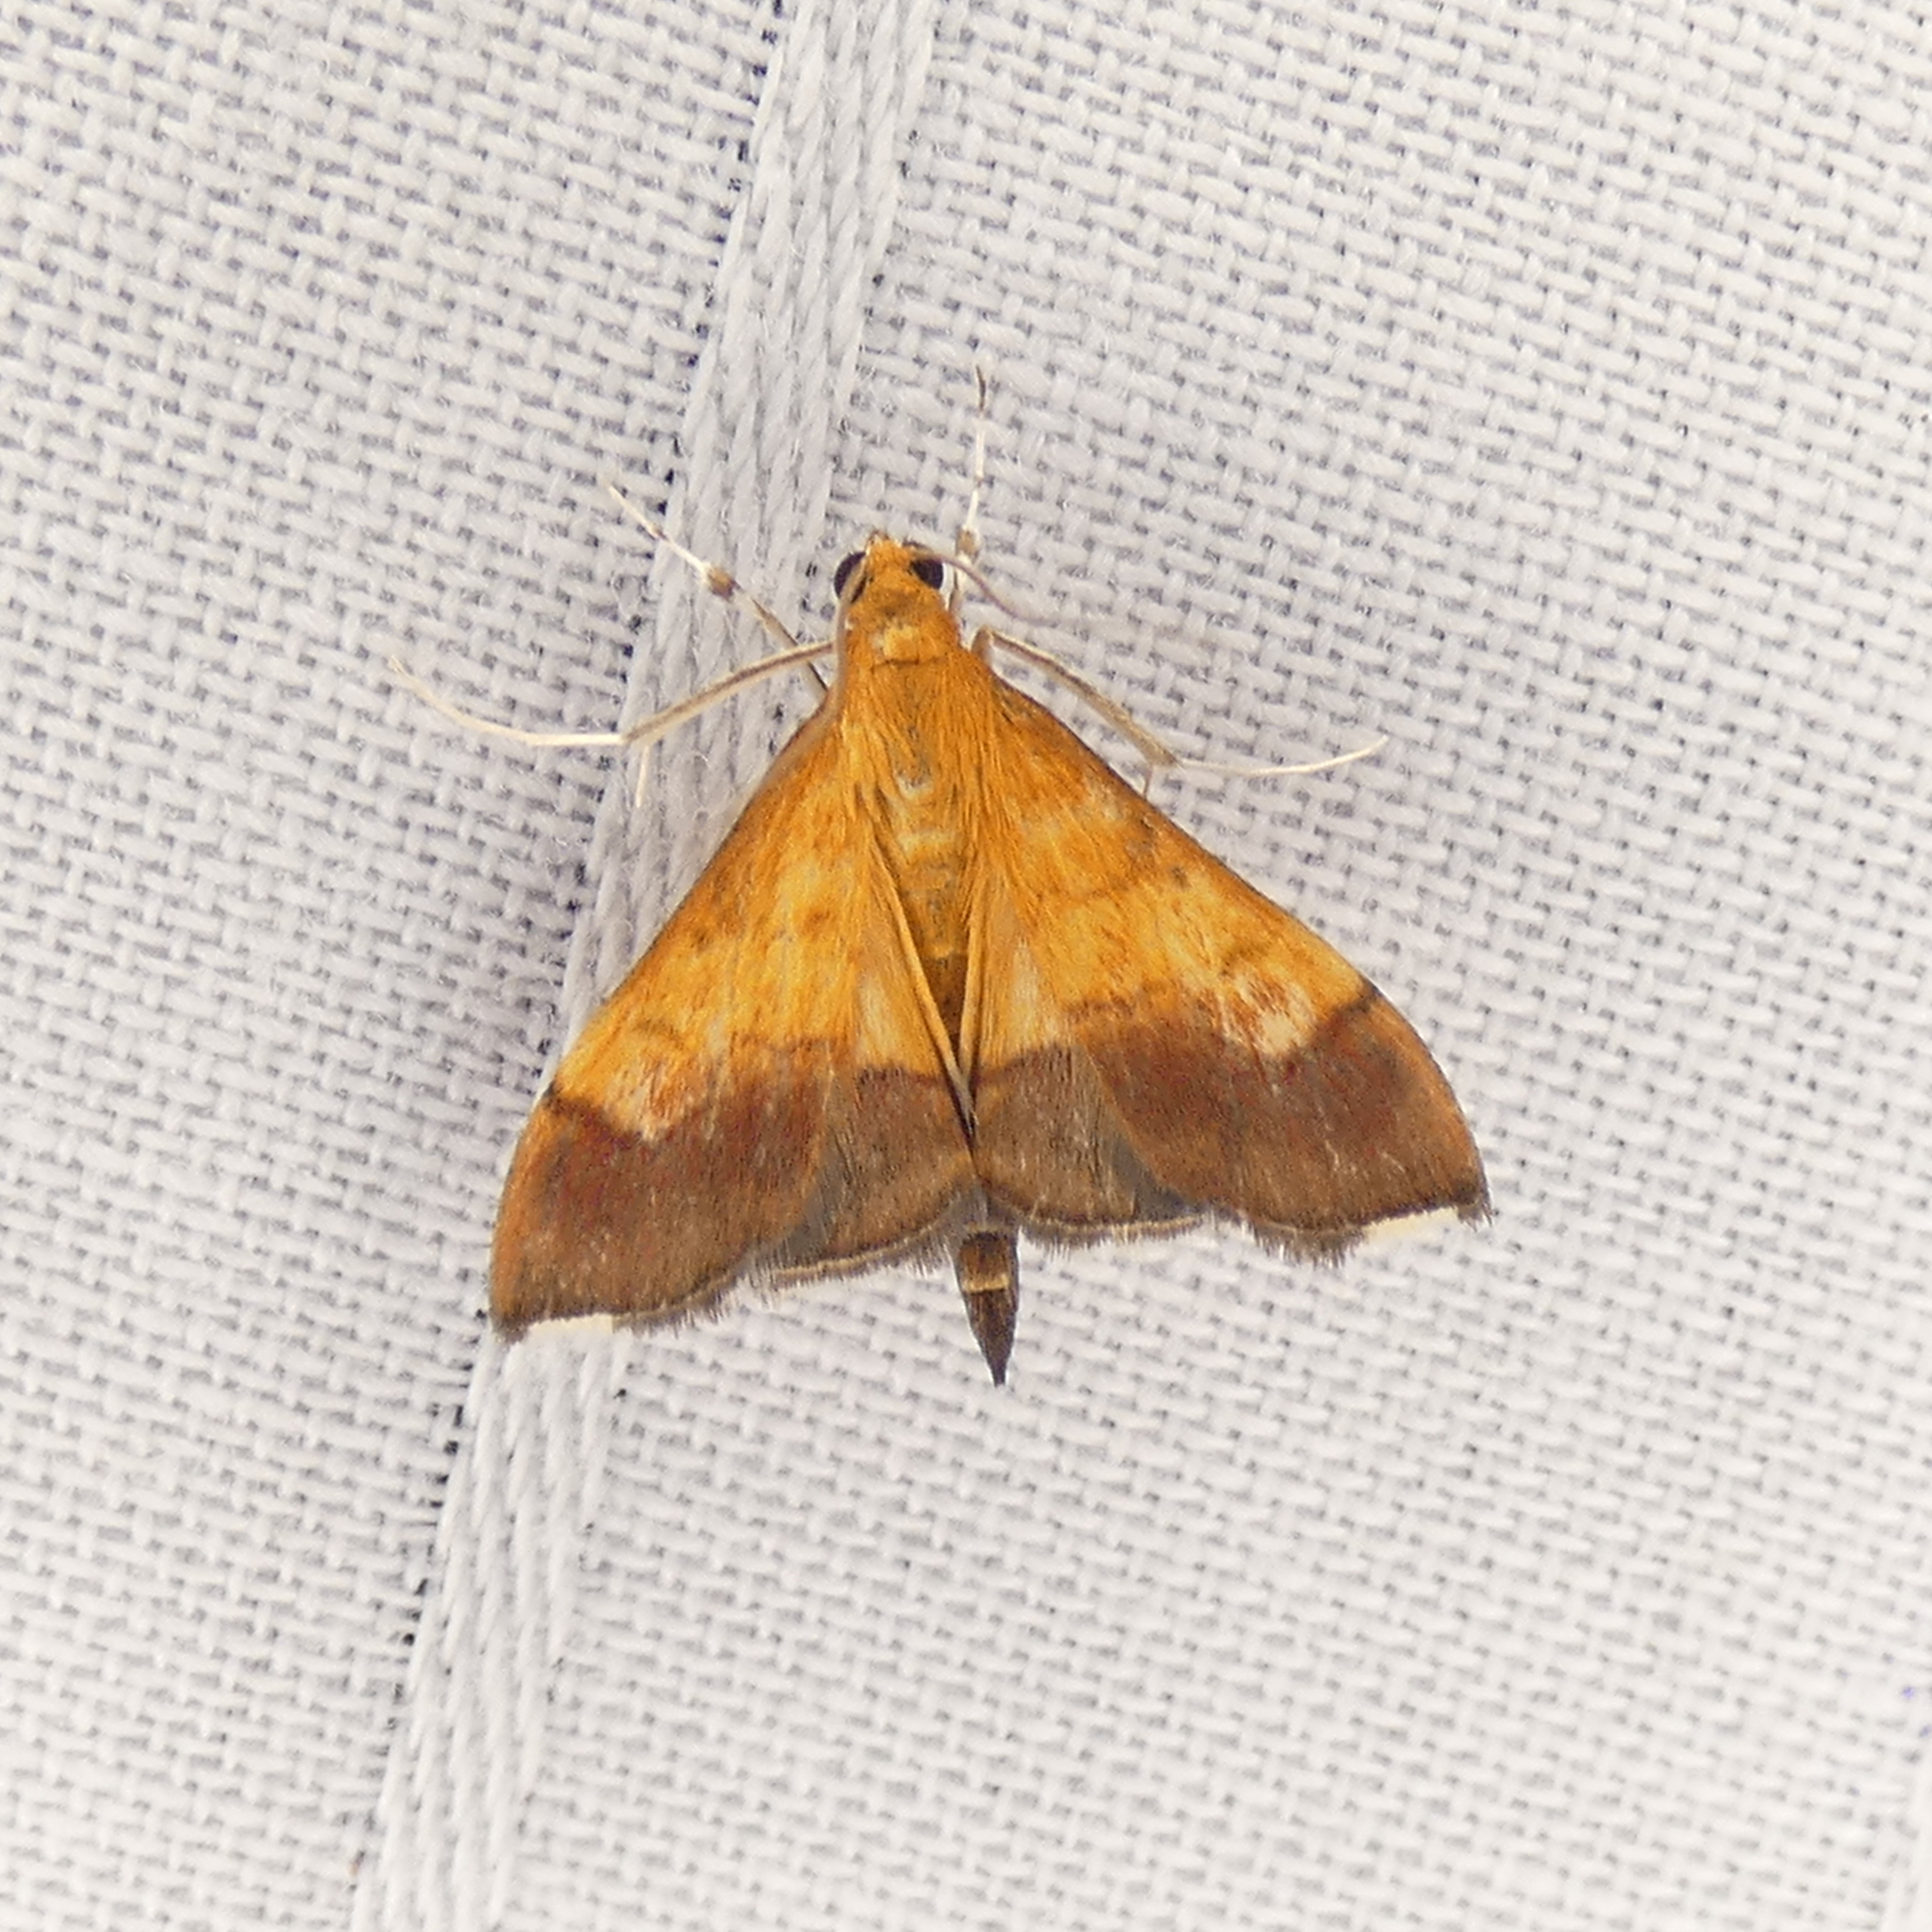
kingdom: Animalia
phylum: Arthropoda
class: Insecta
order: Lepidoptera
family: Crambidae
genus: Pyrausta
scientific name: Pyrausta bicoloralis
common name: Bicolored pyrausta moth
